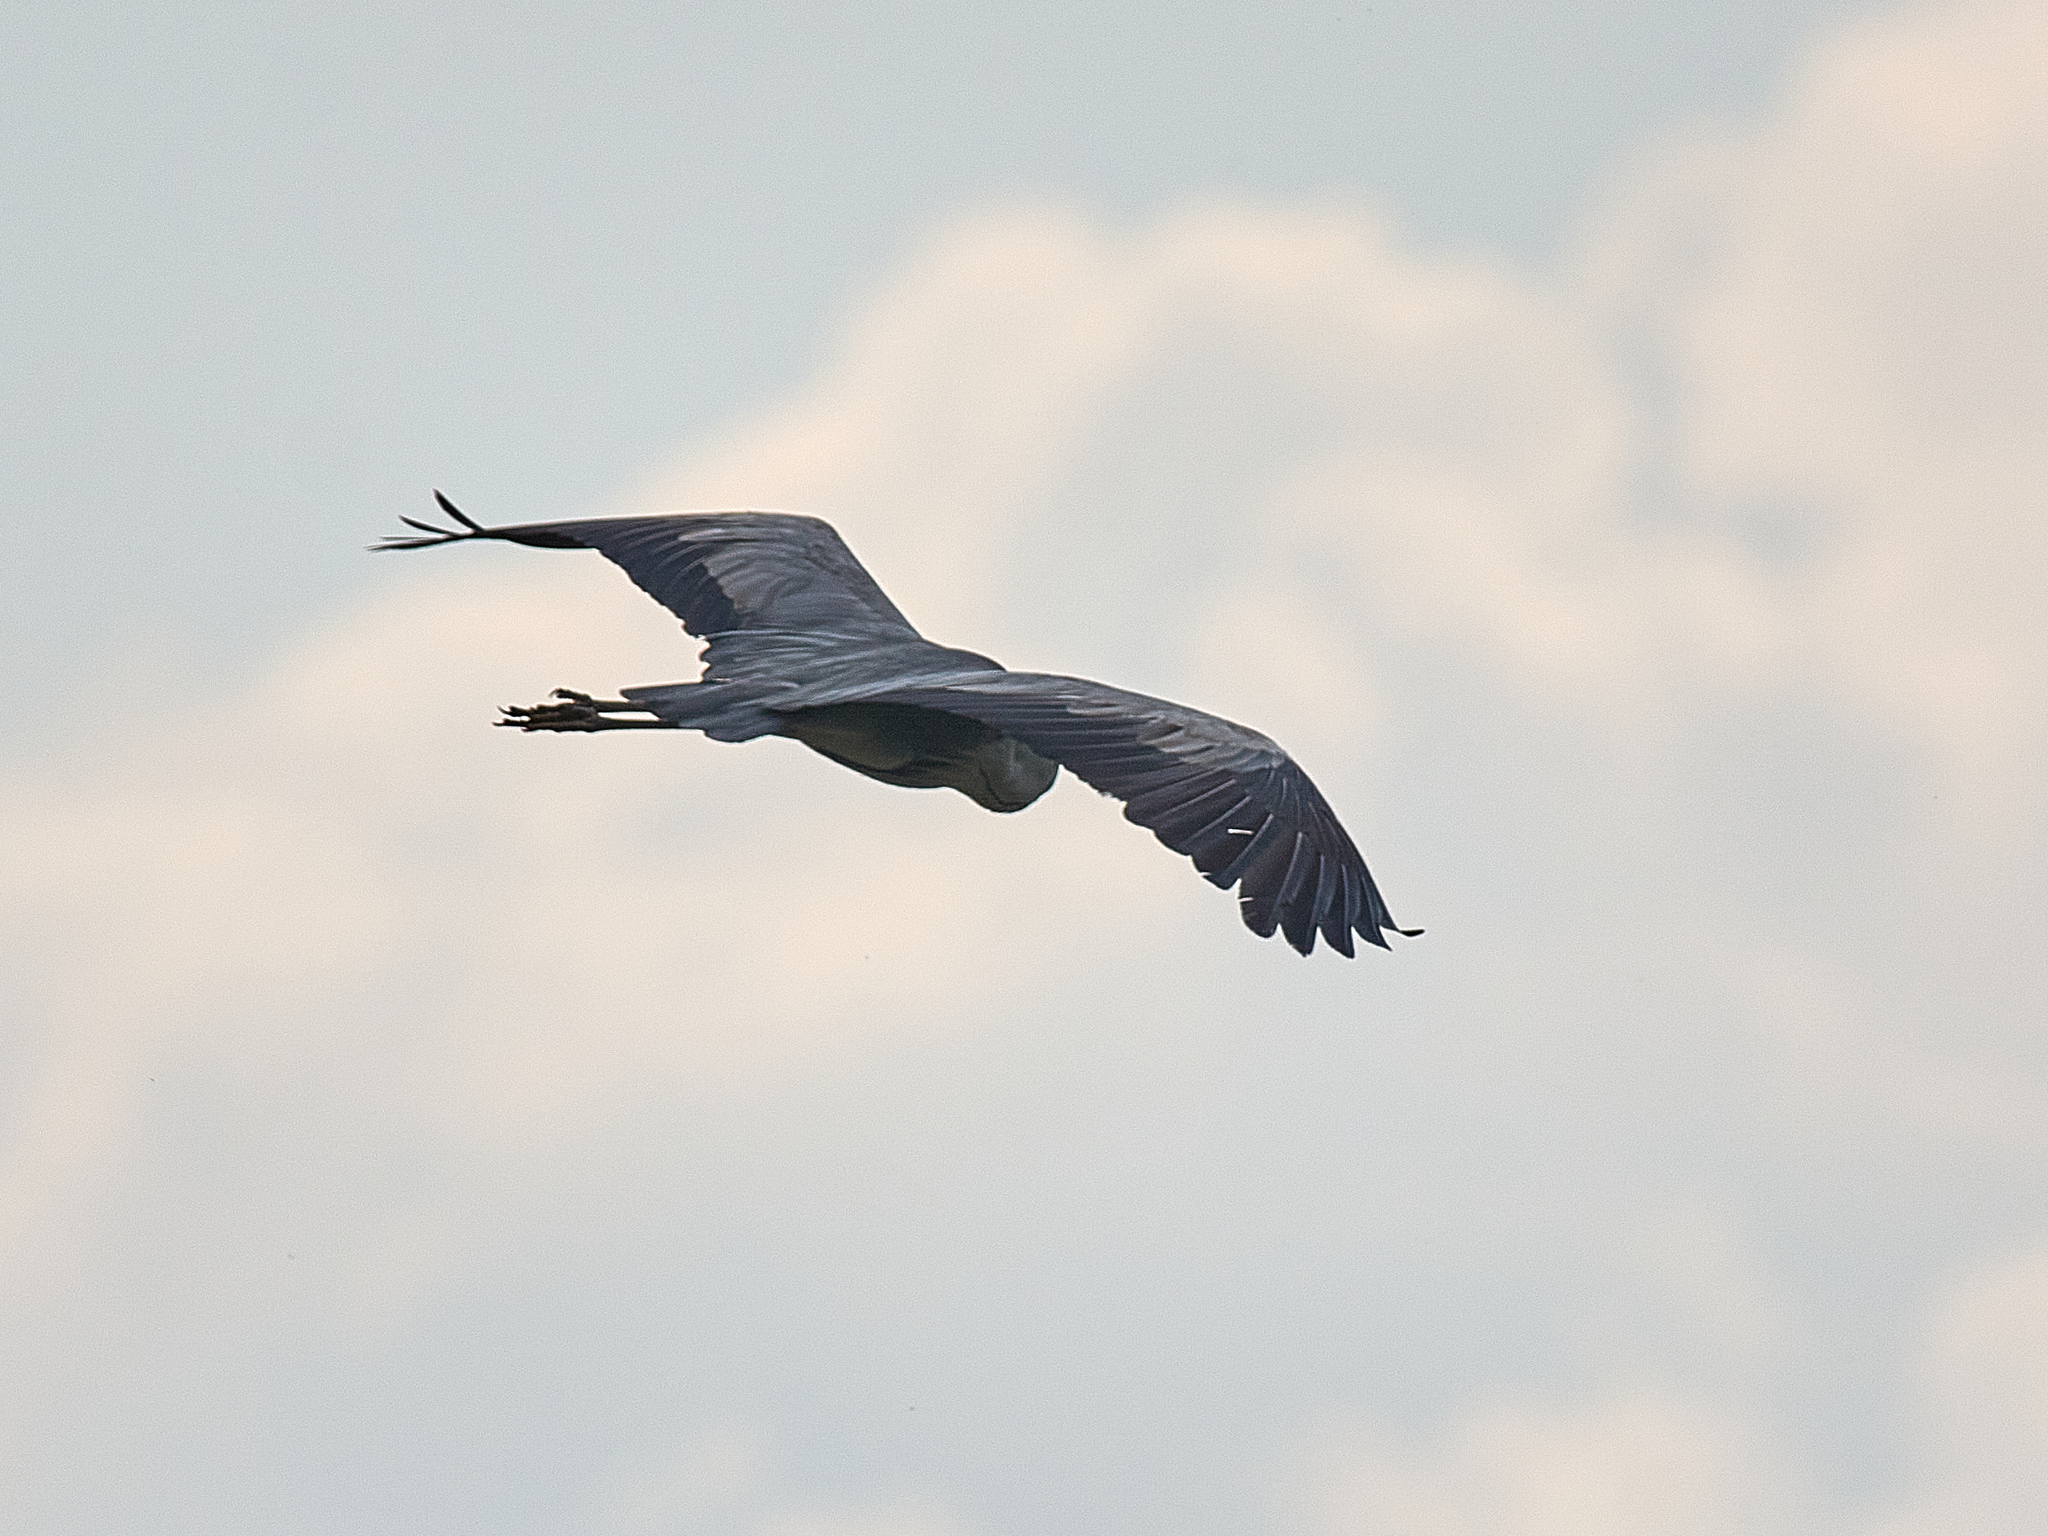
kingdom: Animalia
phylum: Chordata
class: Aves
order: Pelecaniformes
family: Ardeidae
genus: Ardea
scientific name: Ardea cinerea
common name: Grey heron
